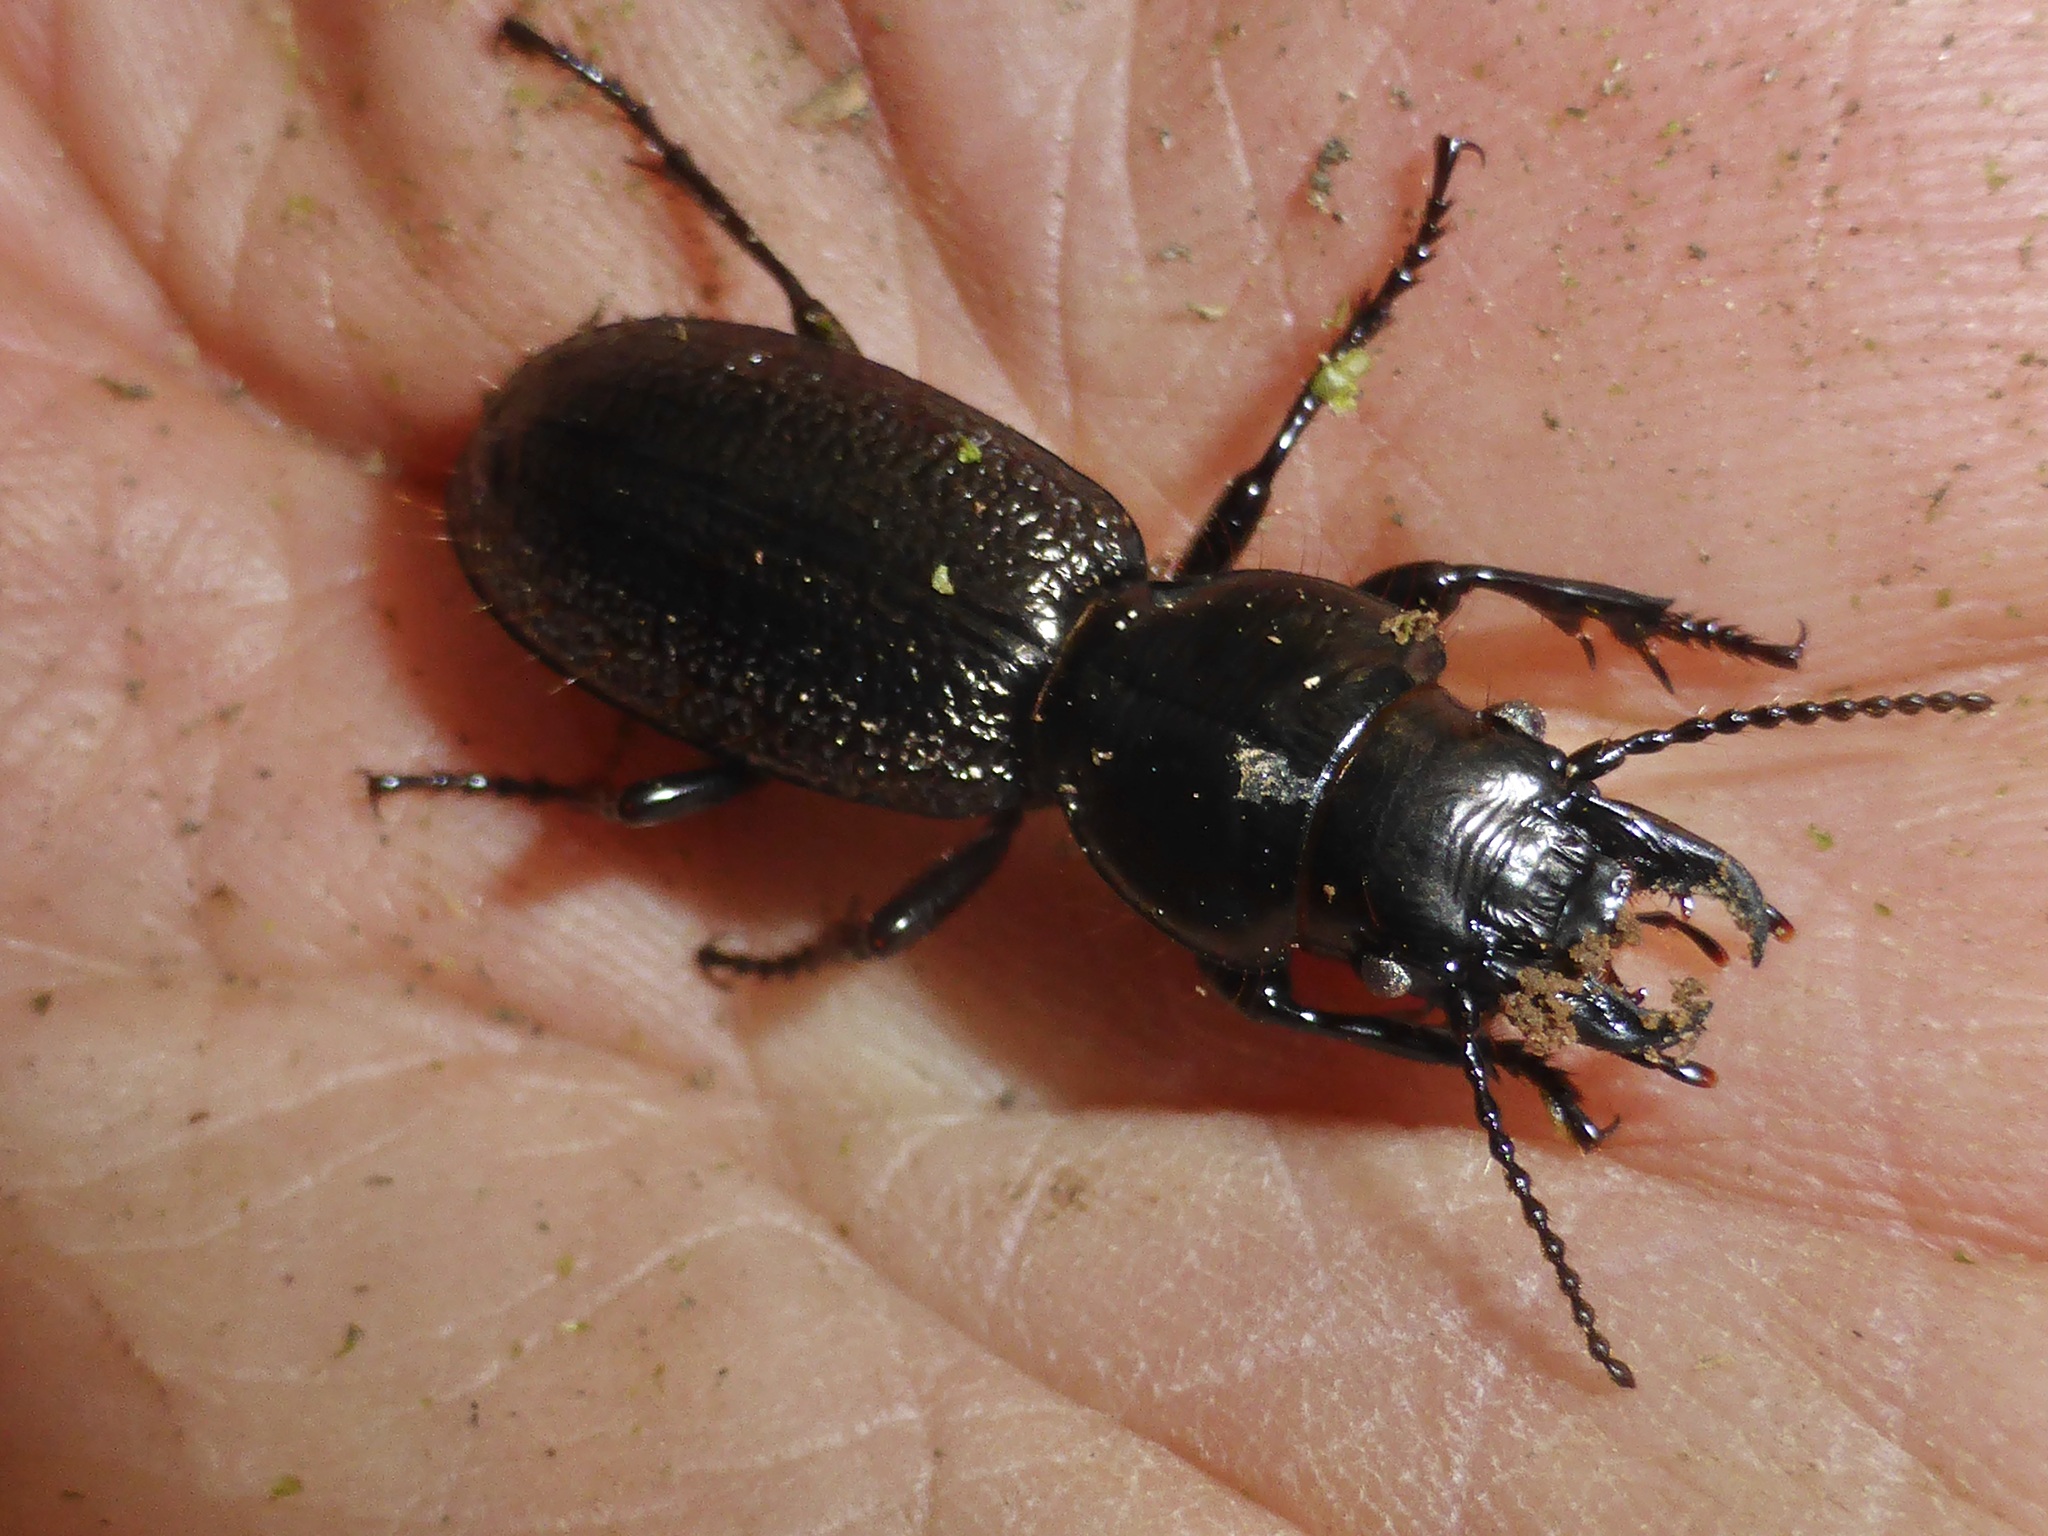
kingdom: Animalia
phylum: Arthropoda
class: Insecta
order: Coleoptera
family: Carabidae
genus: Mecodema
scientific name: Mecodema howittii
